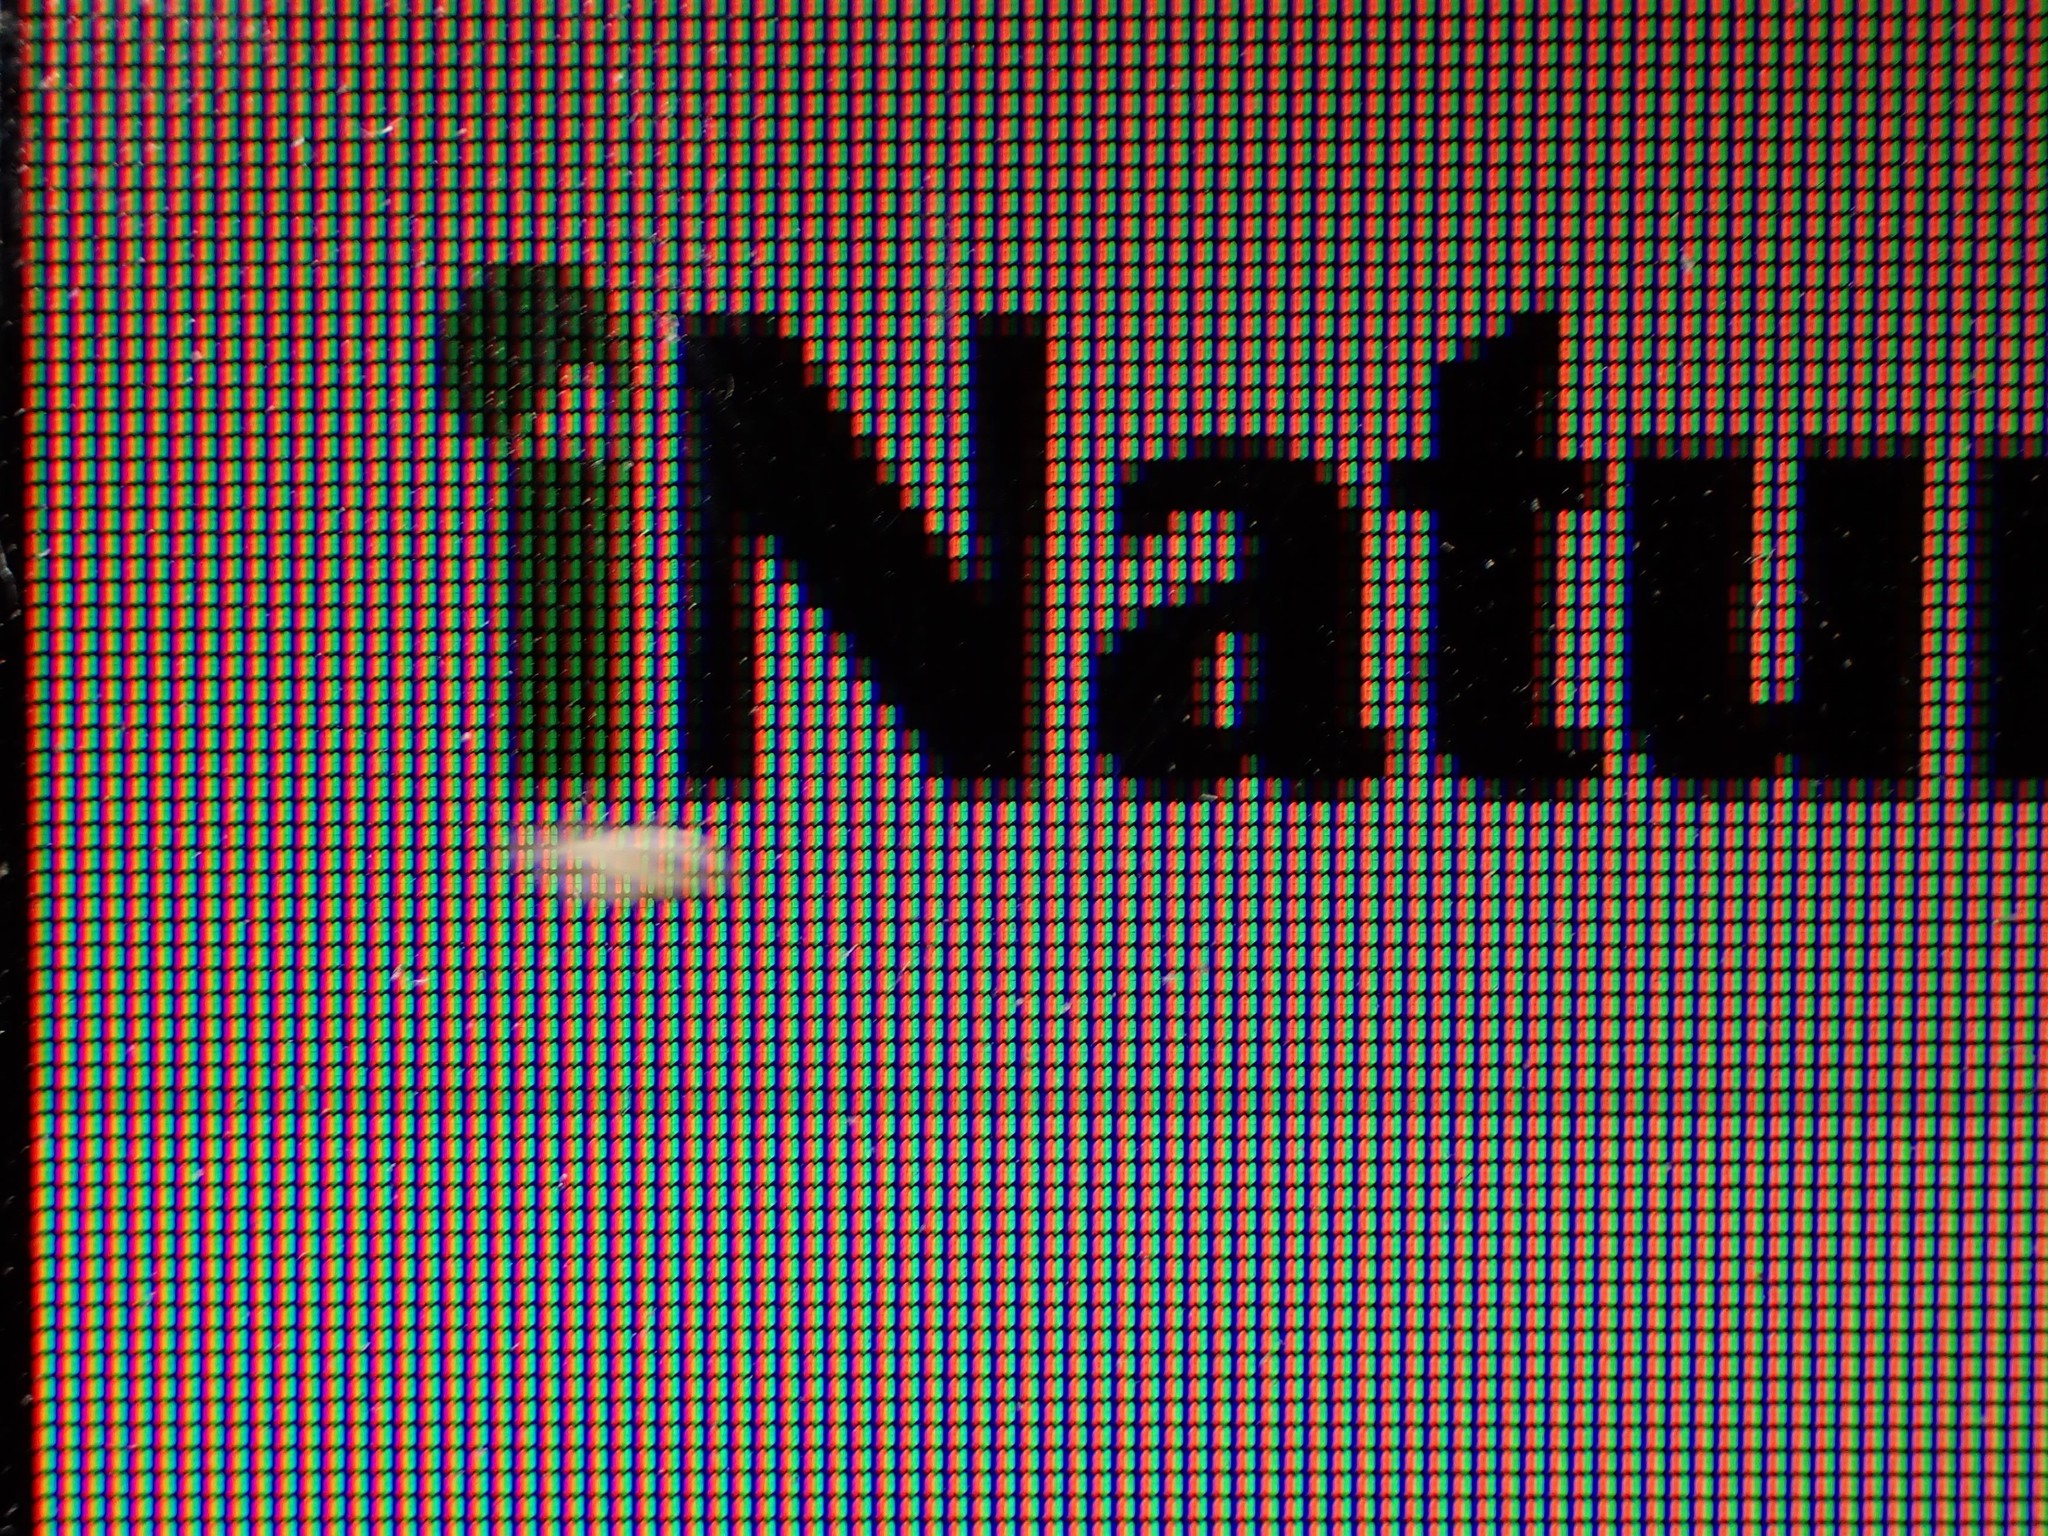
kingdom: Animalia
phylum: Arthropoda
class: Insecta
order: Psocodea
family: Trogiidae
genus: Trogium
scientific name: Trogium pulsatorium
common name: Granary book louse
